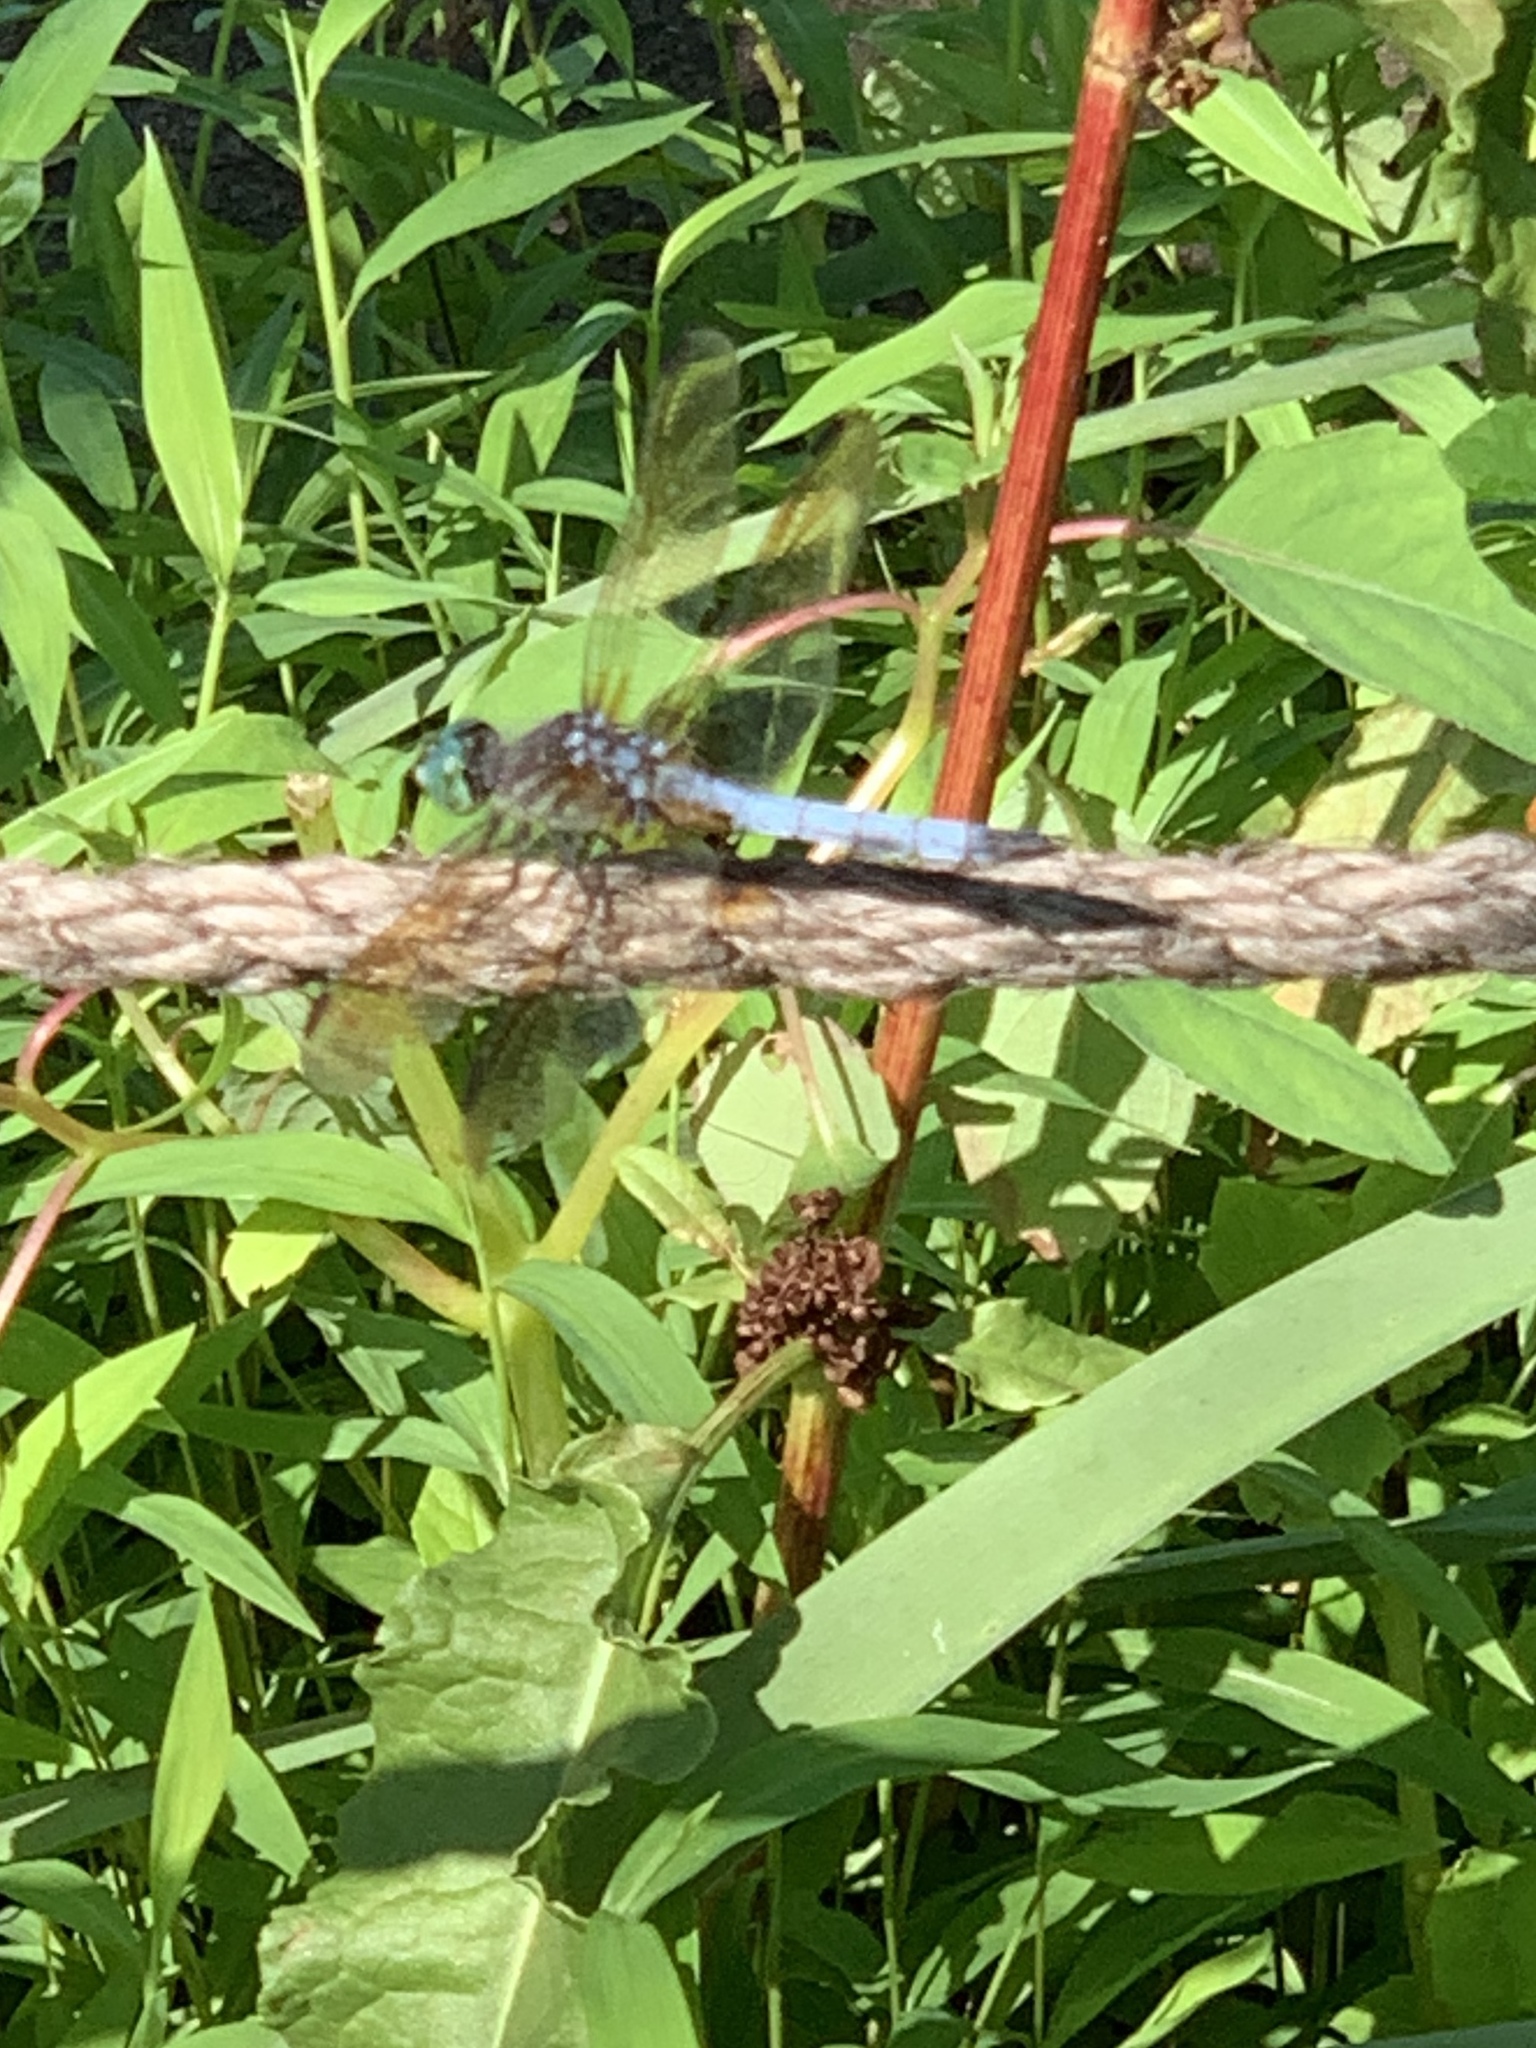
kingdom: Animalia
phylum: Arthropoda
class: Insecta
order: Odonata
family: Libellulidae
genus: Pachydiplax
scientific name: Pachydiplax longipennis
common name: Blue dasher
